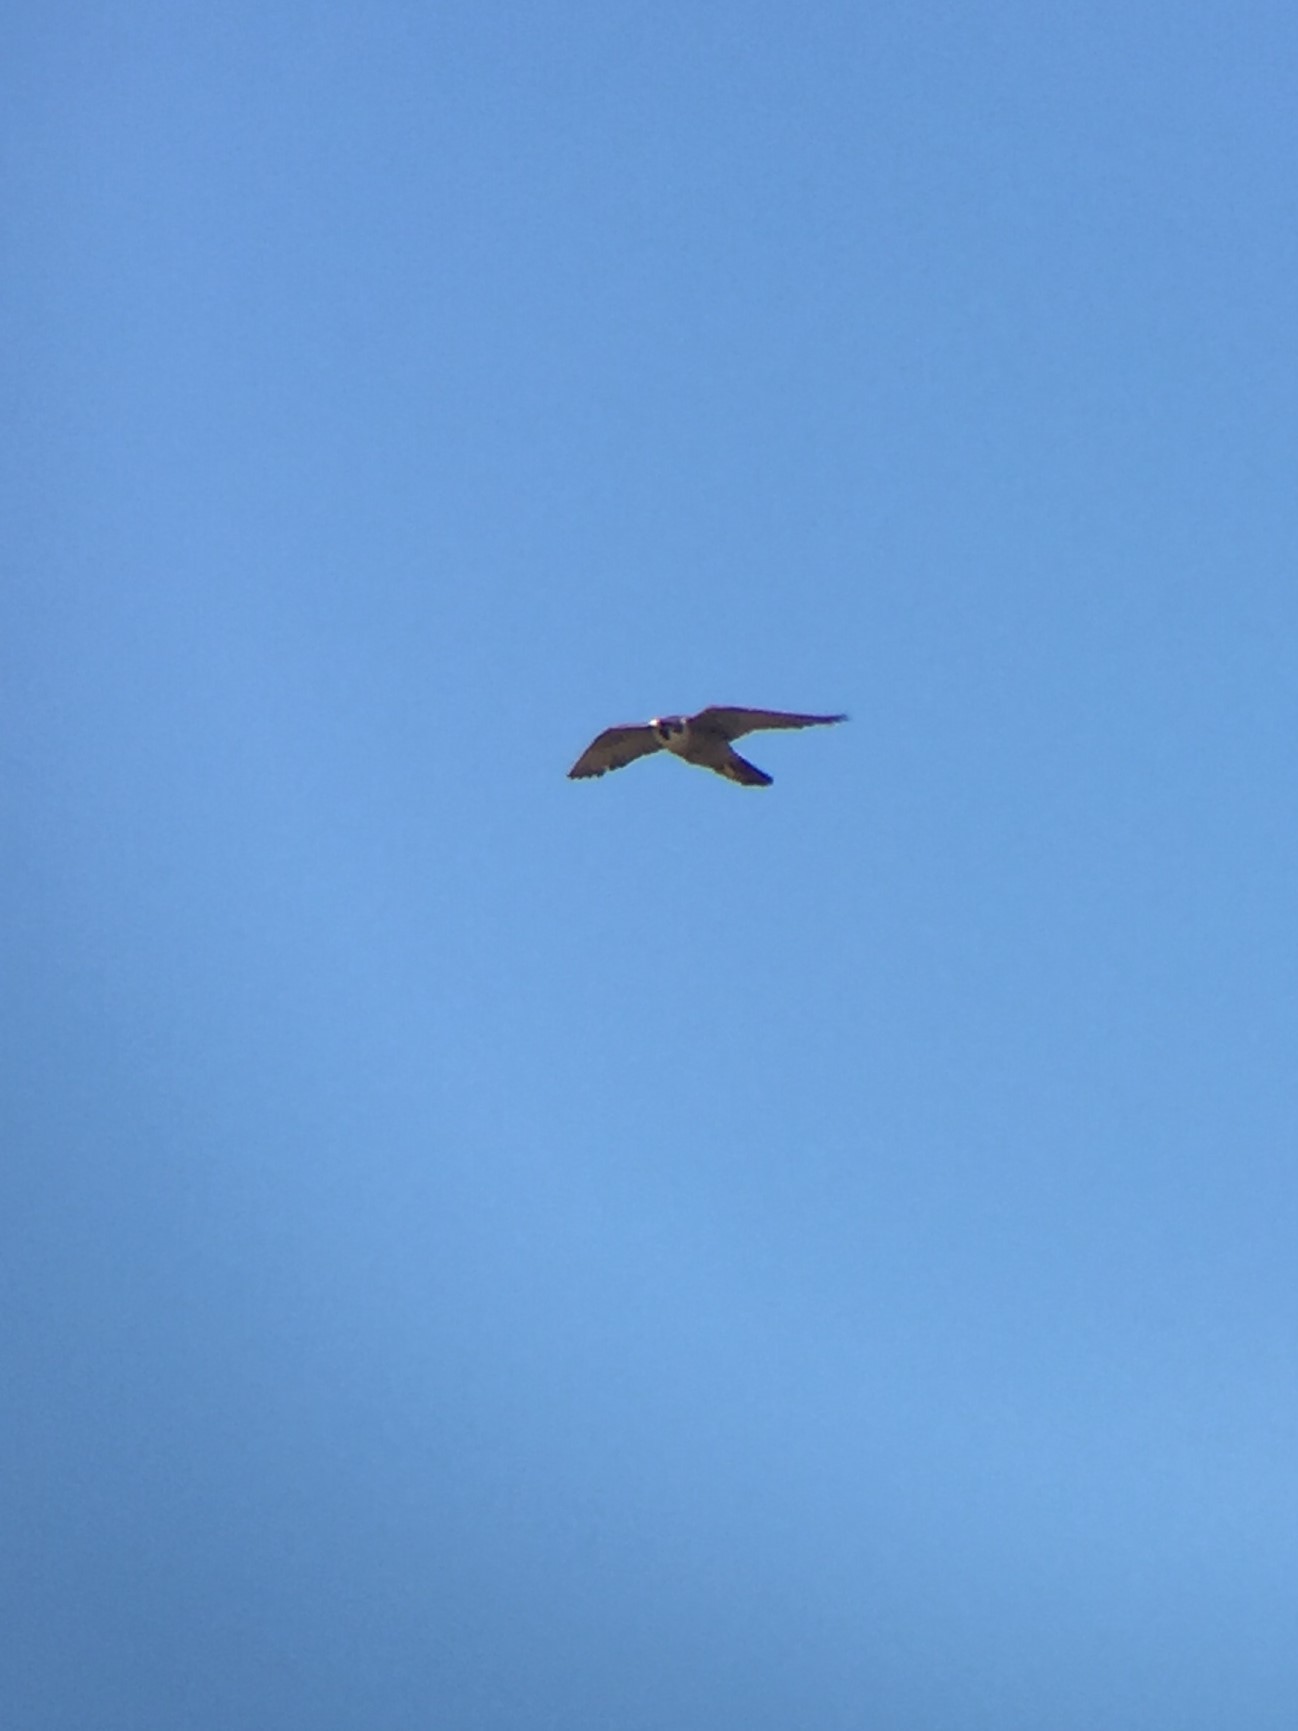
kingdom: Animalia
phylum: Chordata
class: Aves
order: Falconiformes
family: Falconidae
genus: Falco
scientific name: Falco peregrinus
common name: Peregrine falcon
